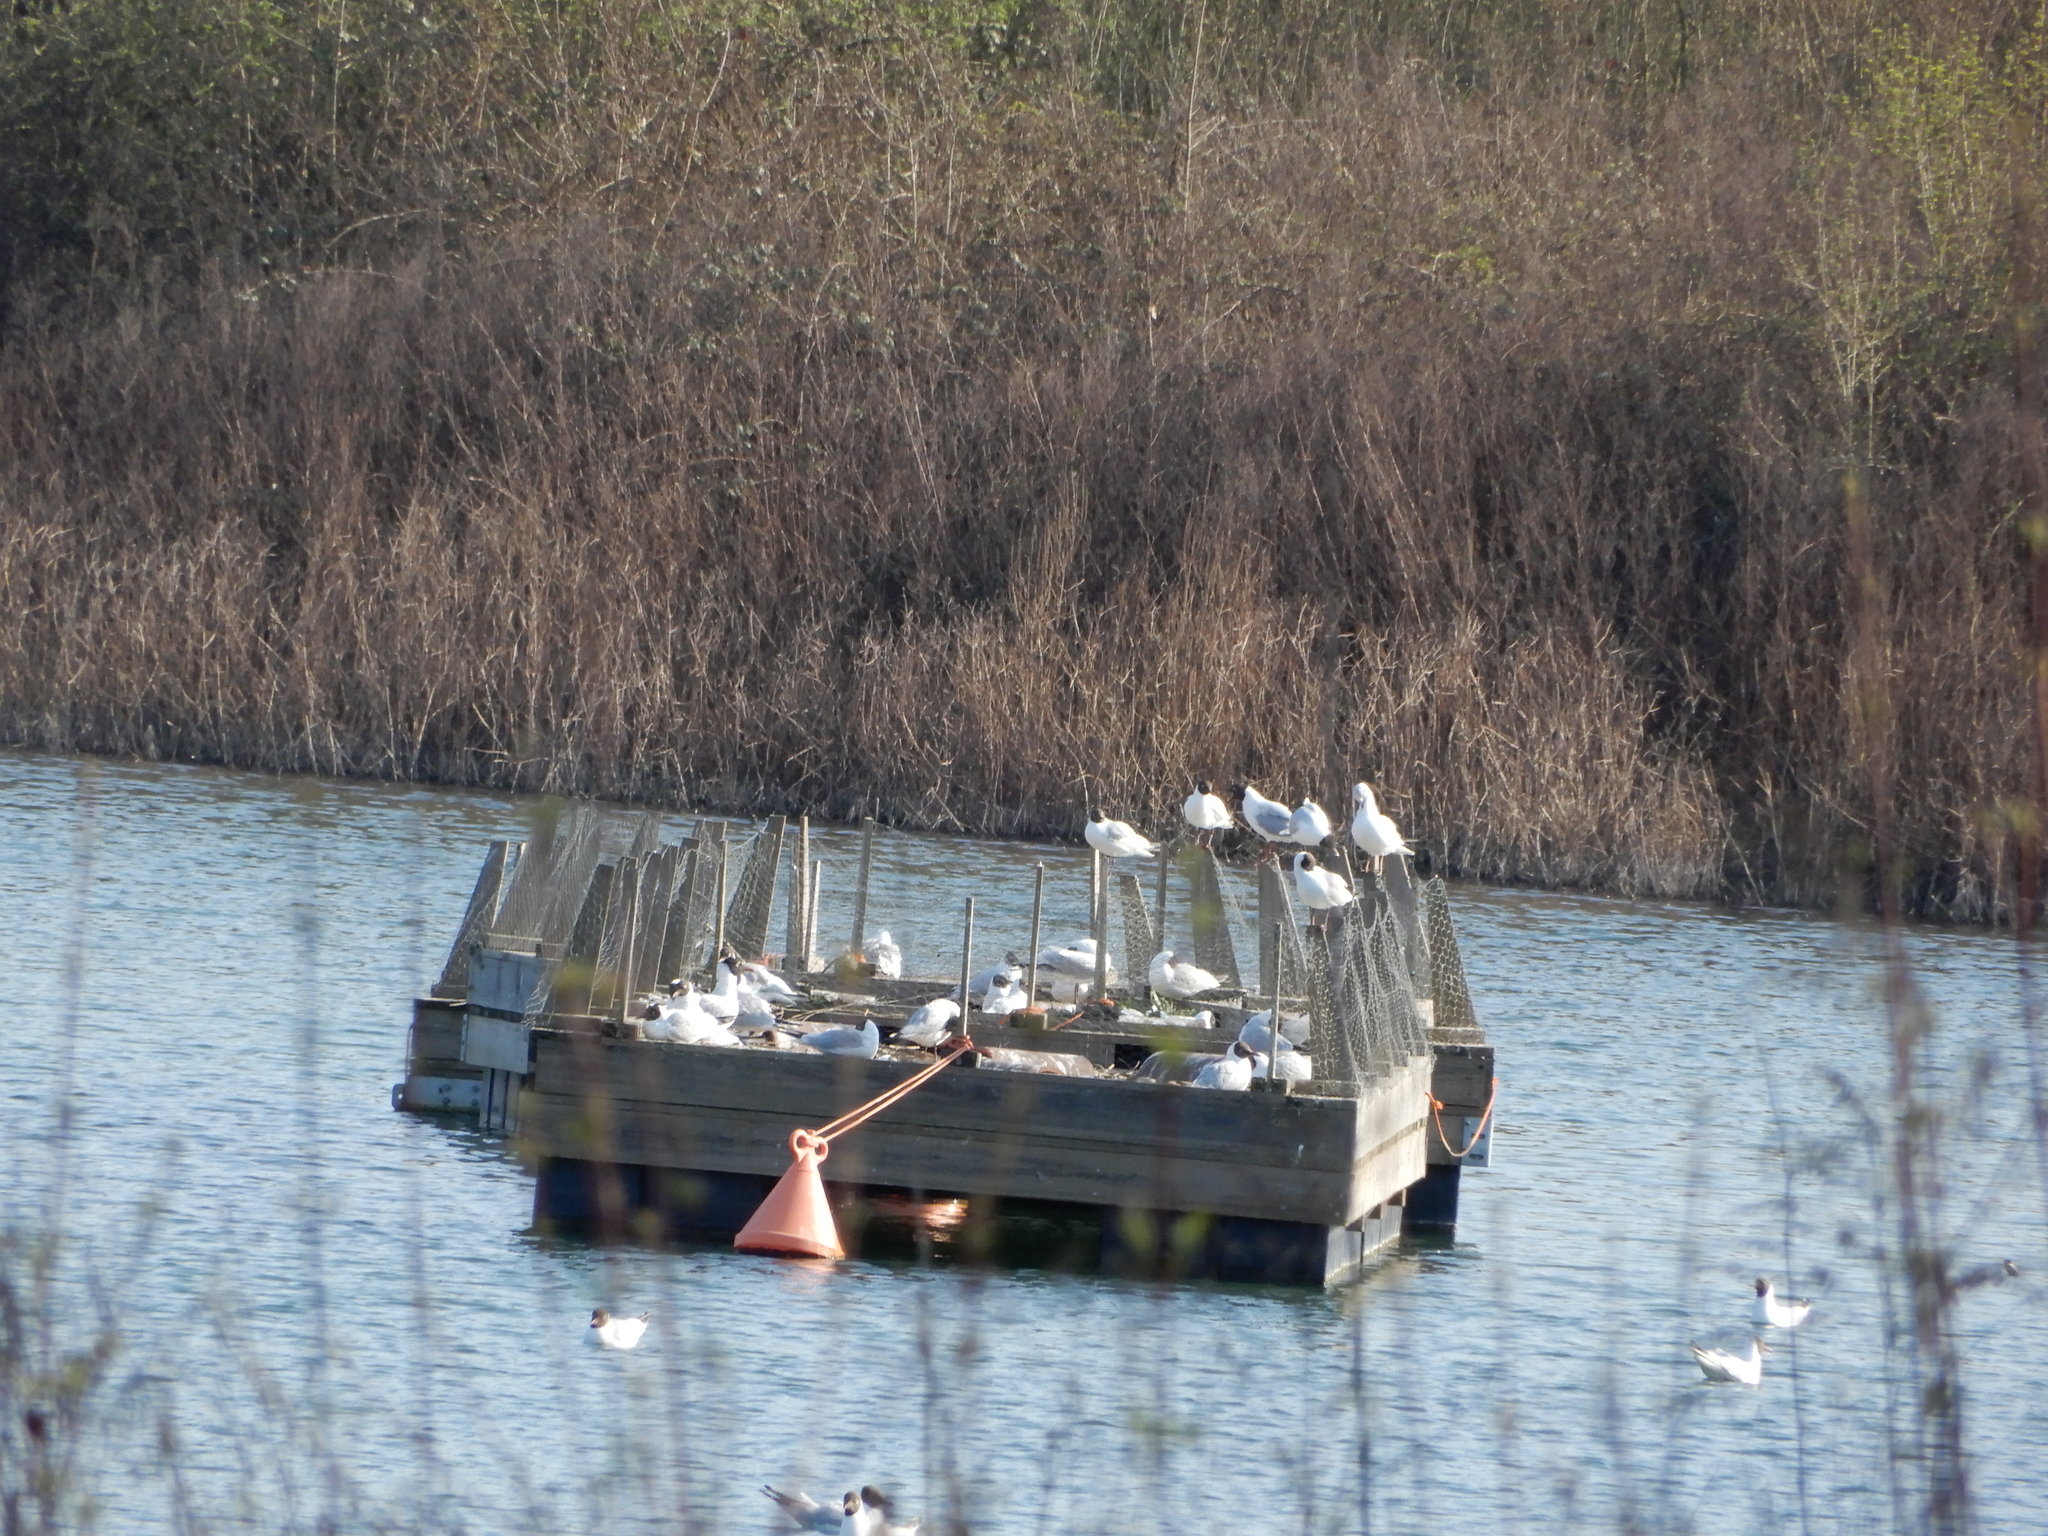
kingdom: Animalia
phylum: Chordata
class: Aves
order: Charadriiformes
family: Laridae
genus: Chroicocephalus
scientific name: Chroicocephalus ridibundus
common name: Black-headed gull
